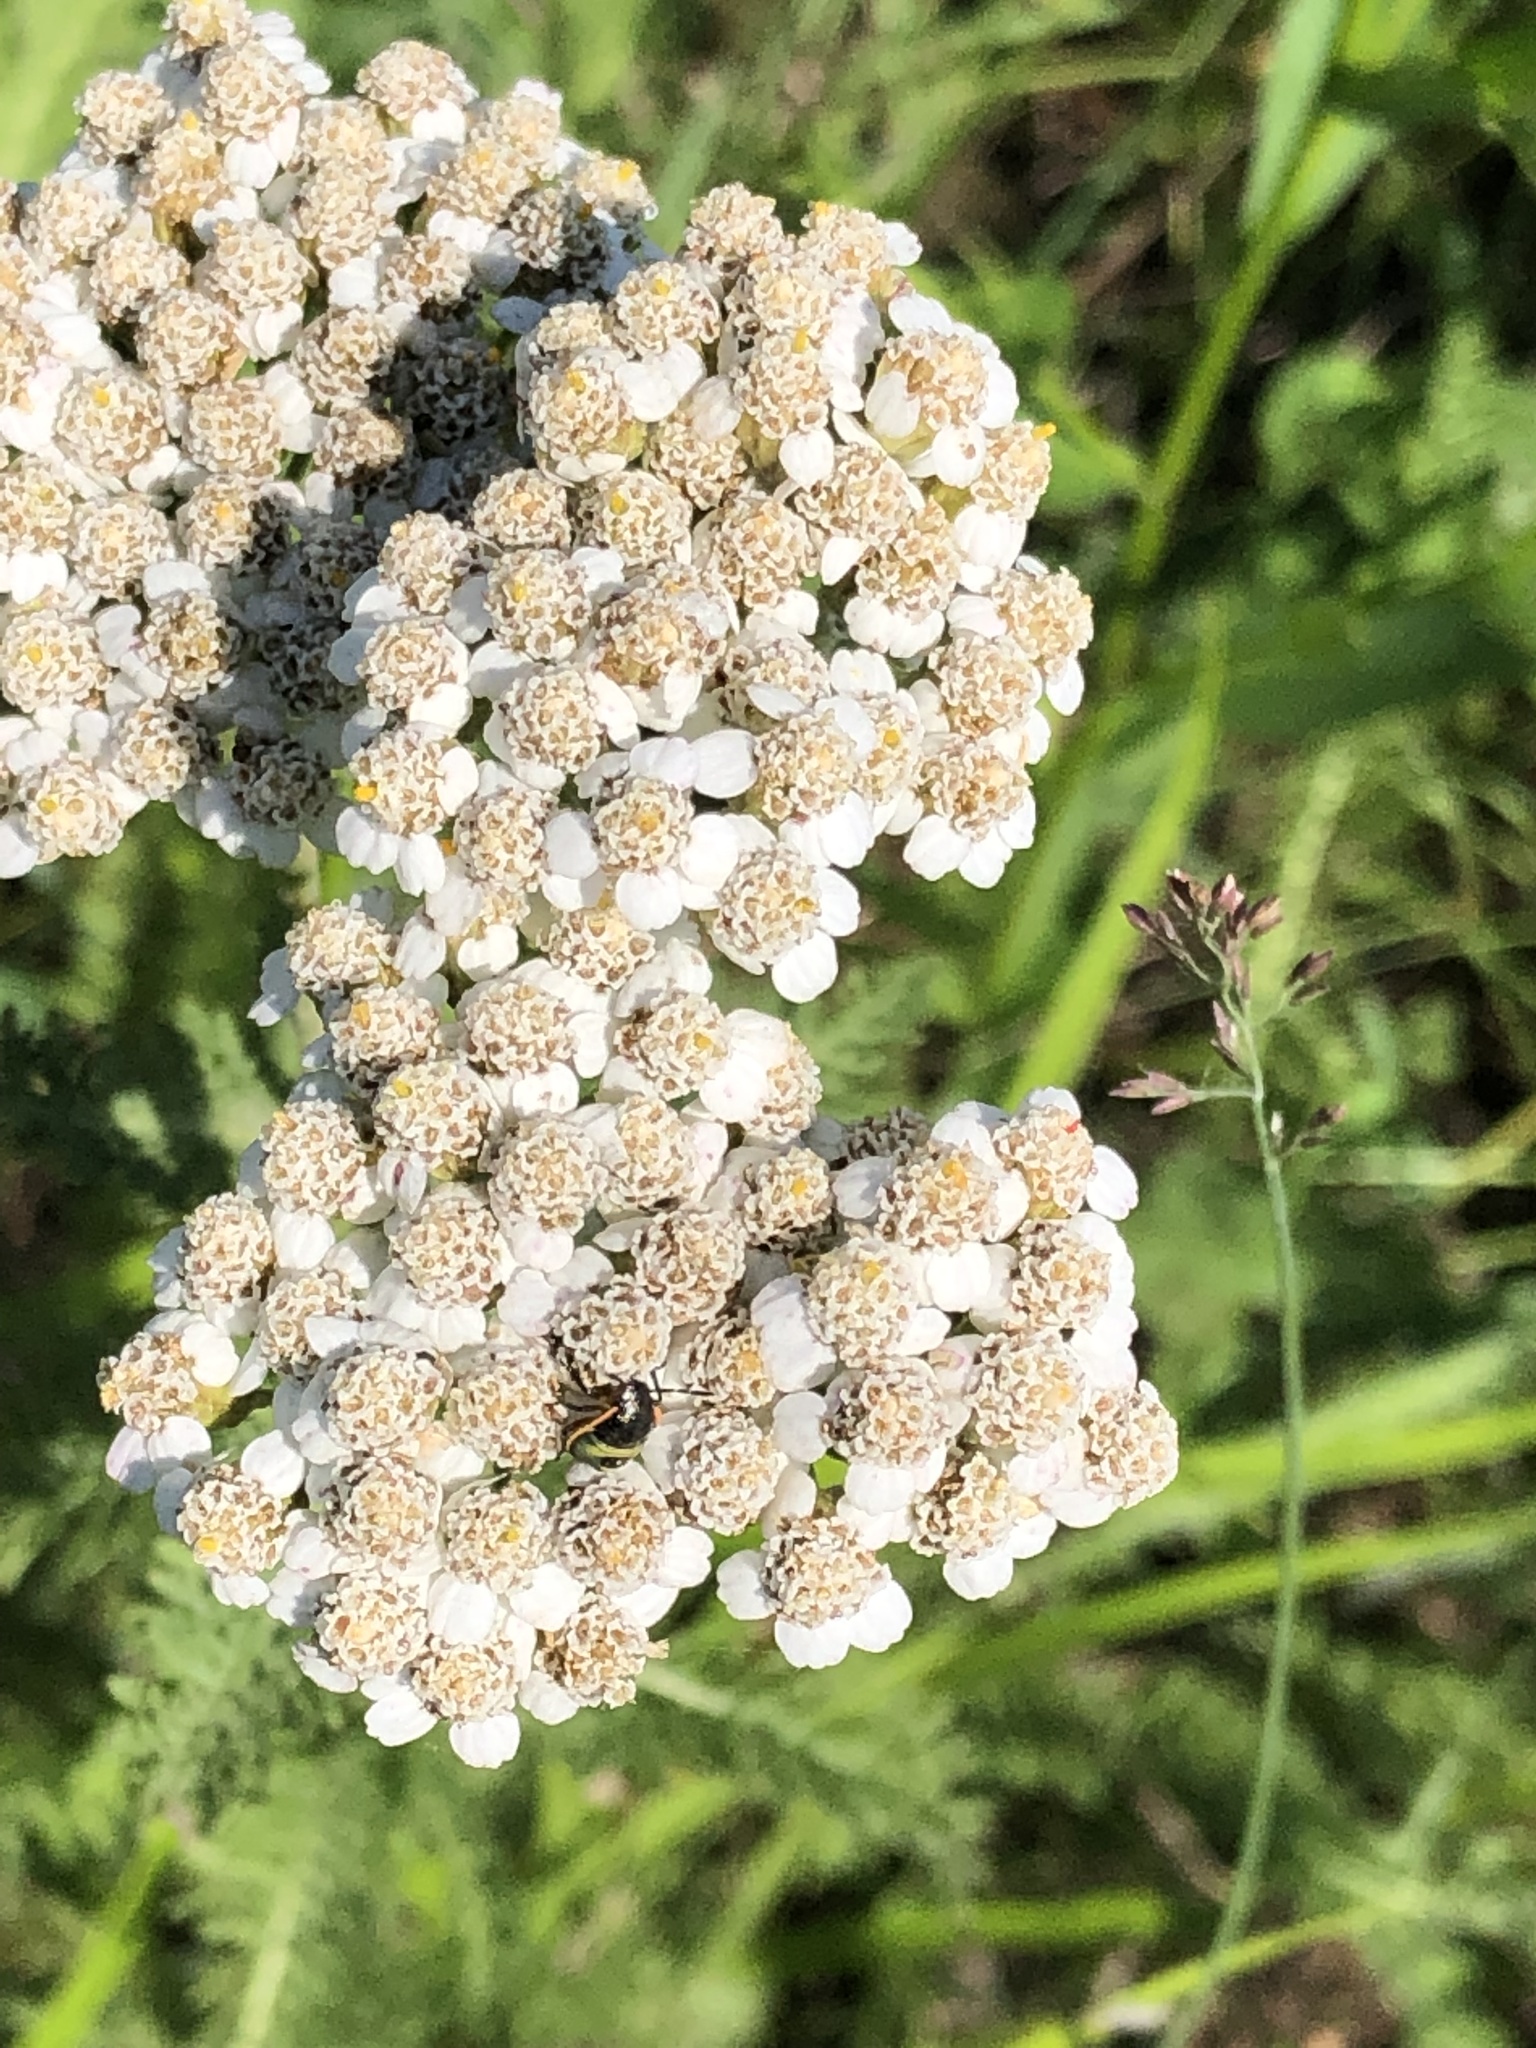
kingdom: Plantae
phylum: Tracheophyta
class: Magnoliopsida
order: Asterales
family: Asteraceae
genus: Achillea
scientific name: Achillea millefolium
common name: Yarrow
